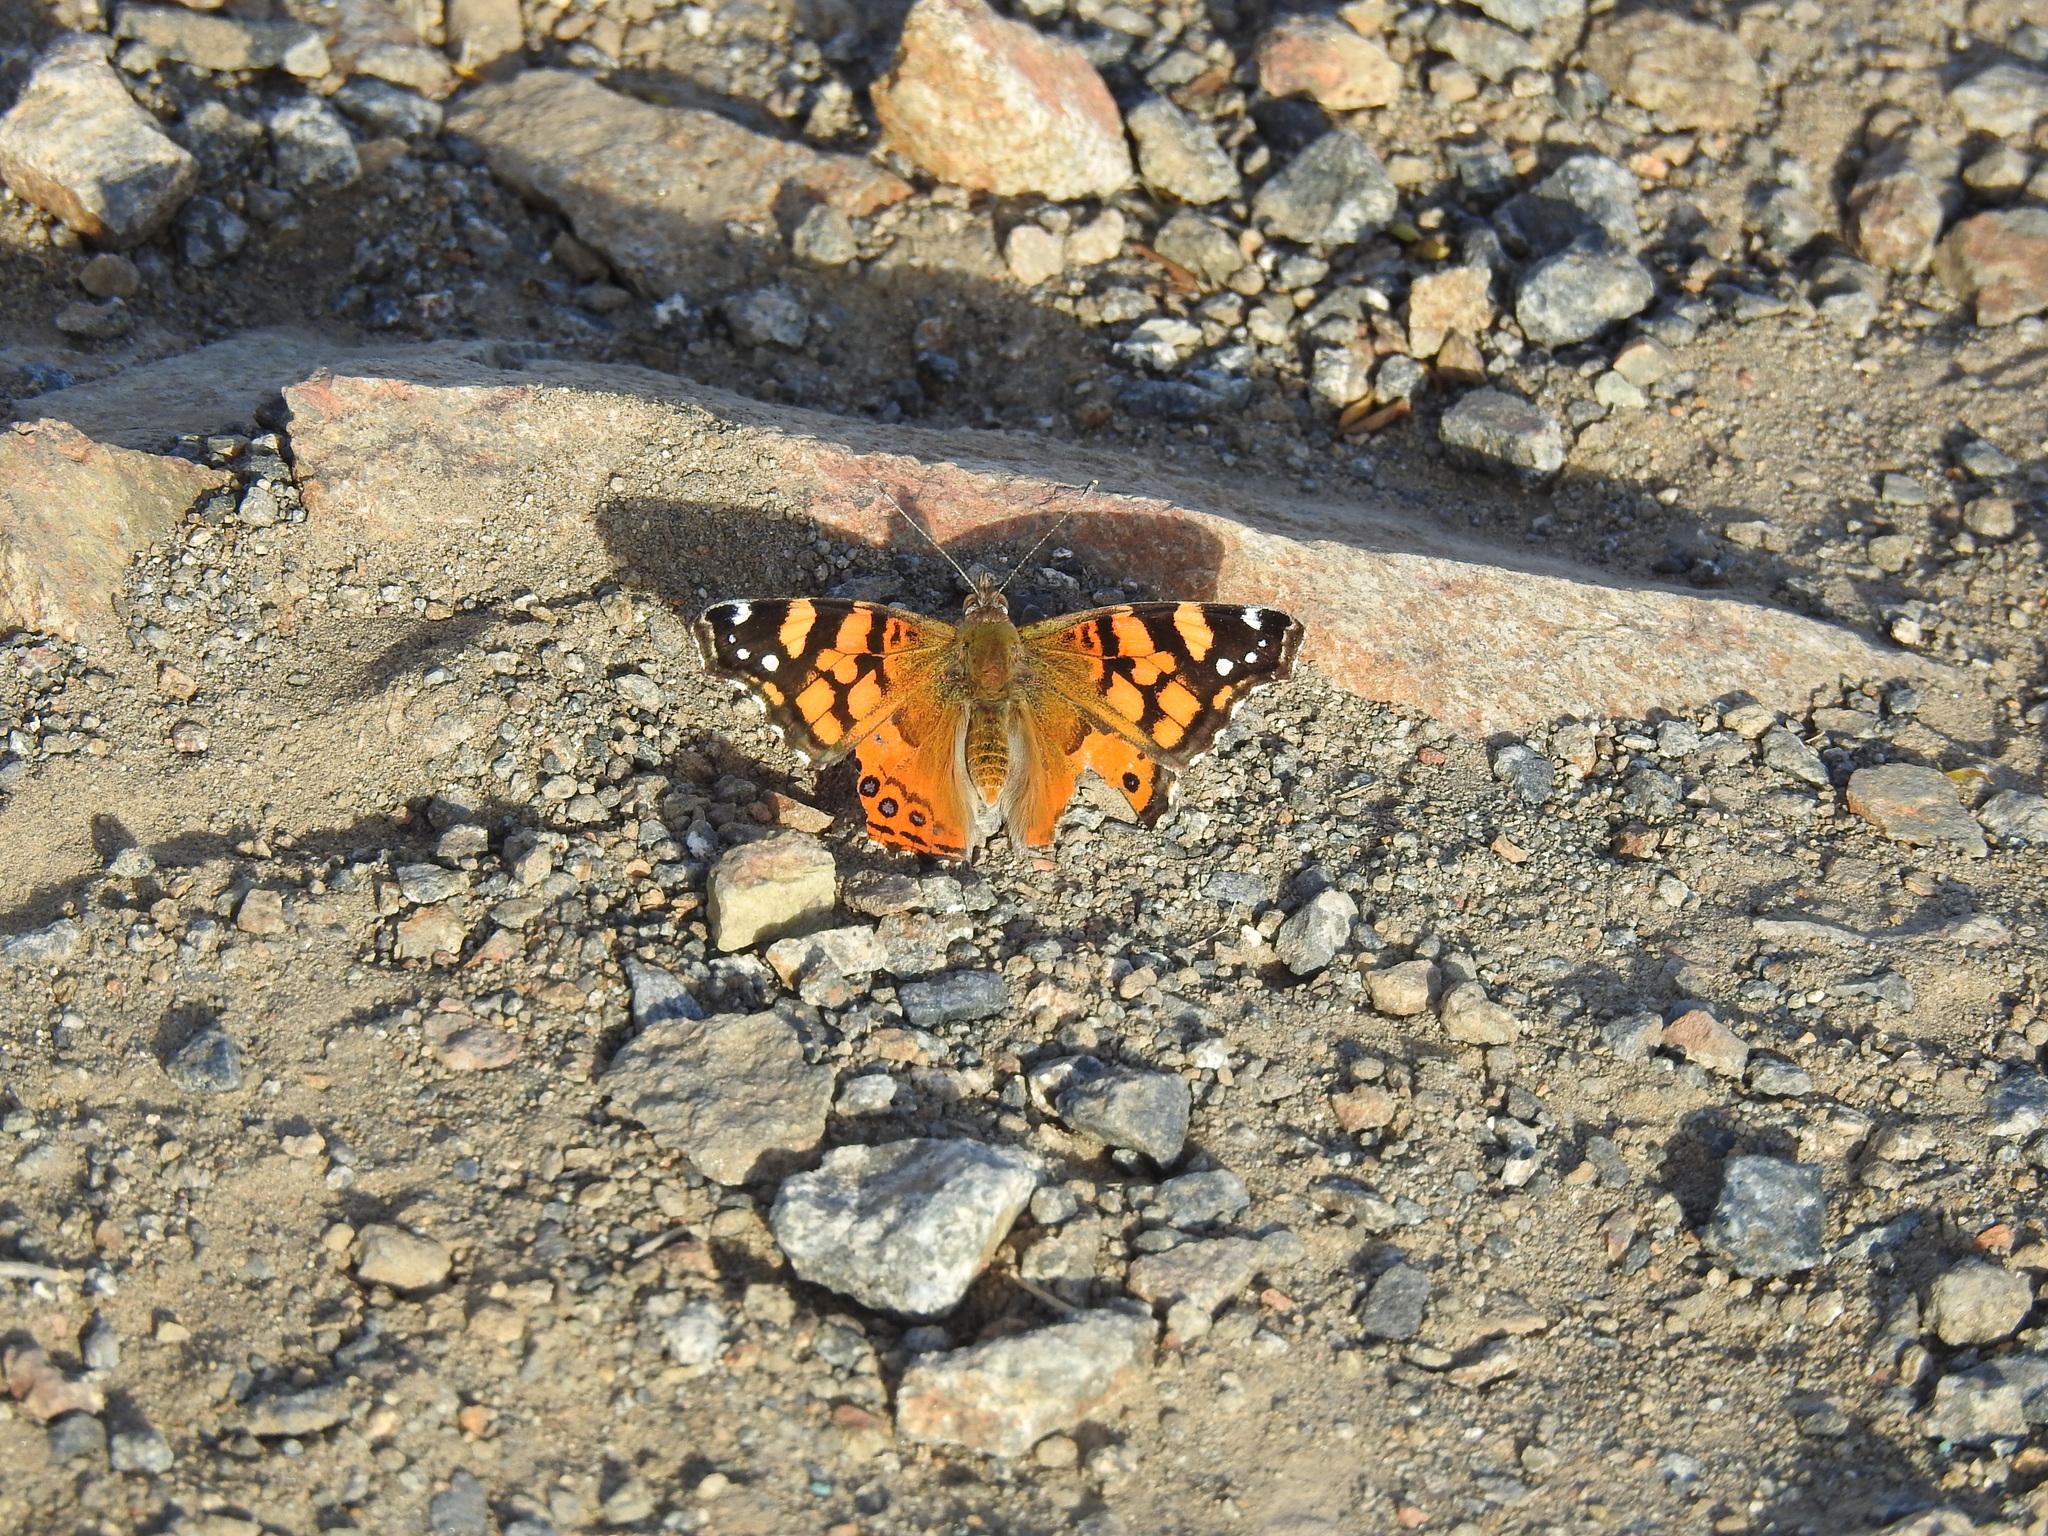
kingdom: Animalia
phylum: Arthropoda
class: Insecta
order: Lepidoptera
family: Nymphalidae
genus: Vanessa
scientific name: Vanessa annabella
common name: West coast lady
